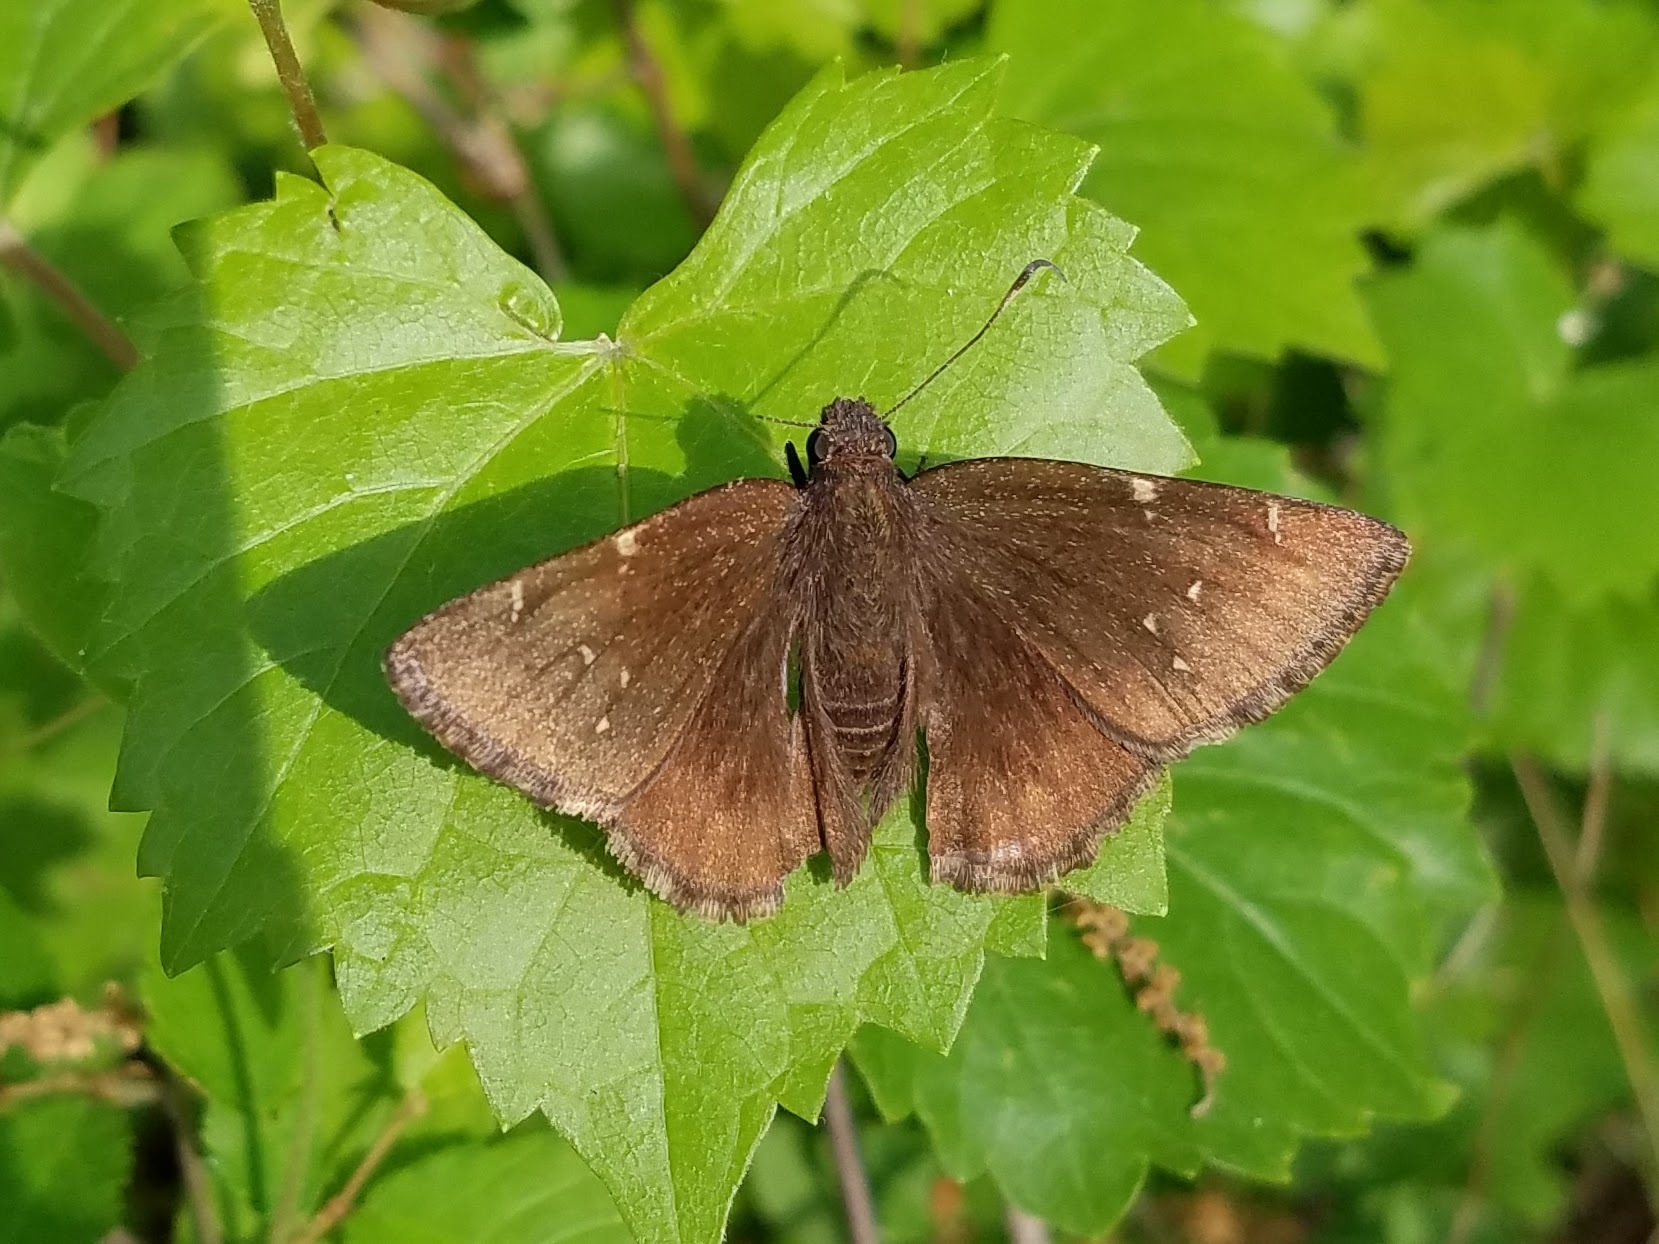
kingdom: Animalia
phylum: Arthropoda
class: Insecta
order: Lepidoptera
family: Hesperiidae
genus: Thorybes
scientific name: Thorybes pylades
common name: Northern cloudywing
